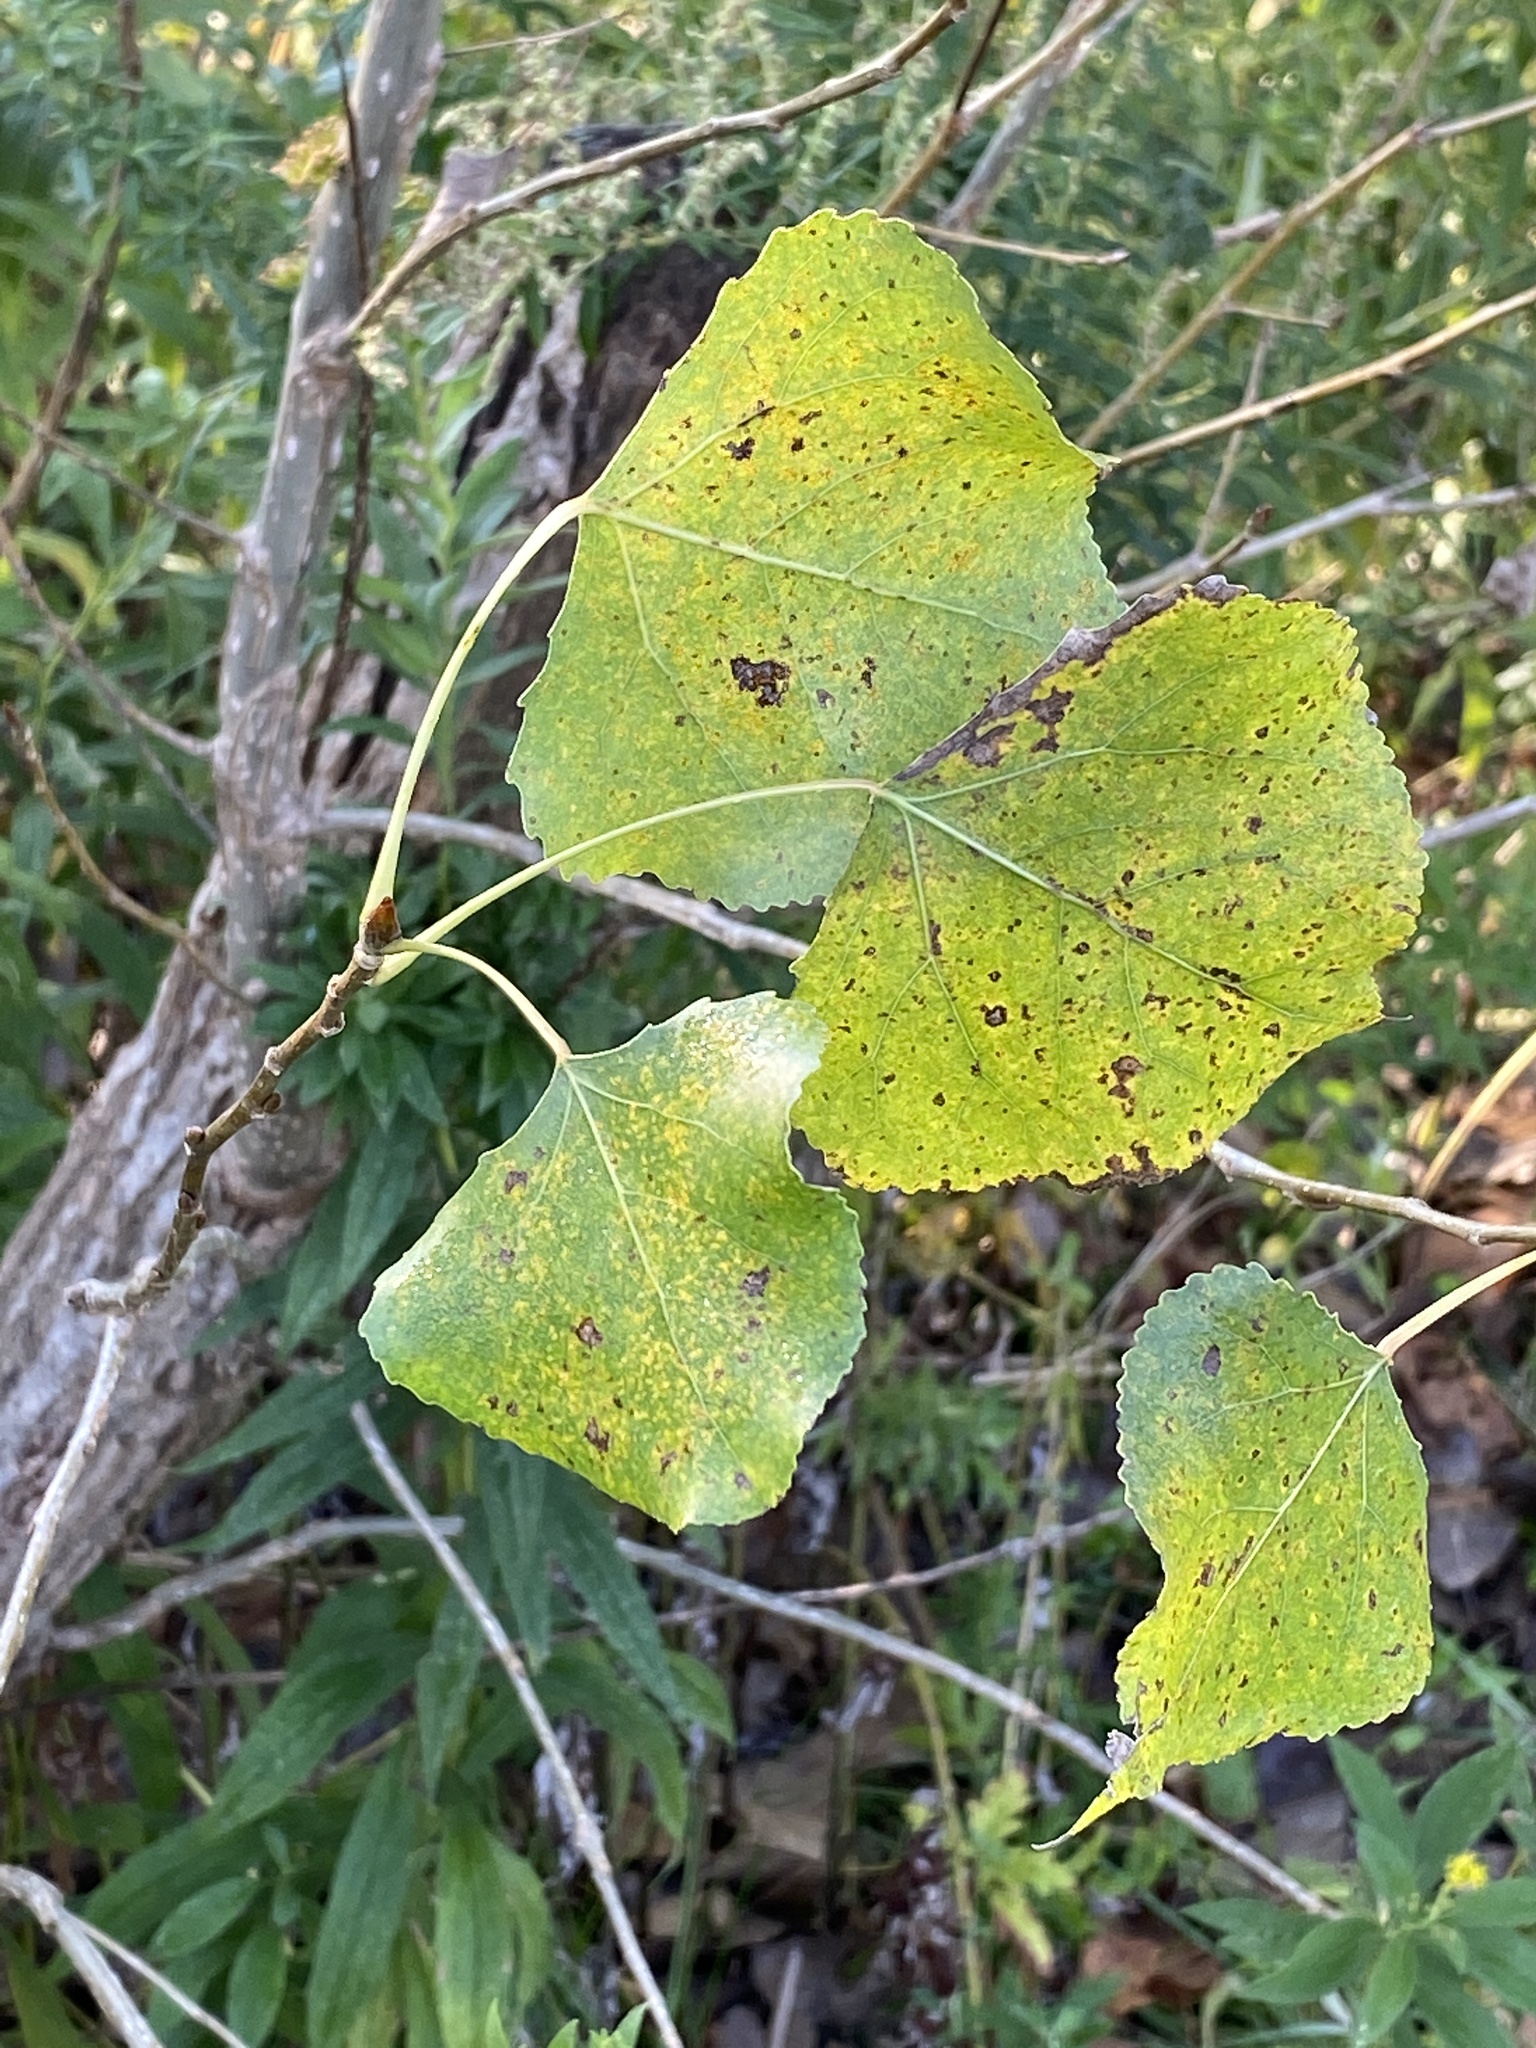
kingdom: Plantae
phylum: Tracheophyta
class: Magnoliopsida
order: Malpighiales
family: Salicaceae
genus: Populus
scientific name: Populus deltoides
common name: Eastern cottonwood
